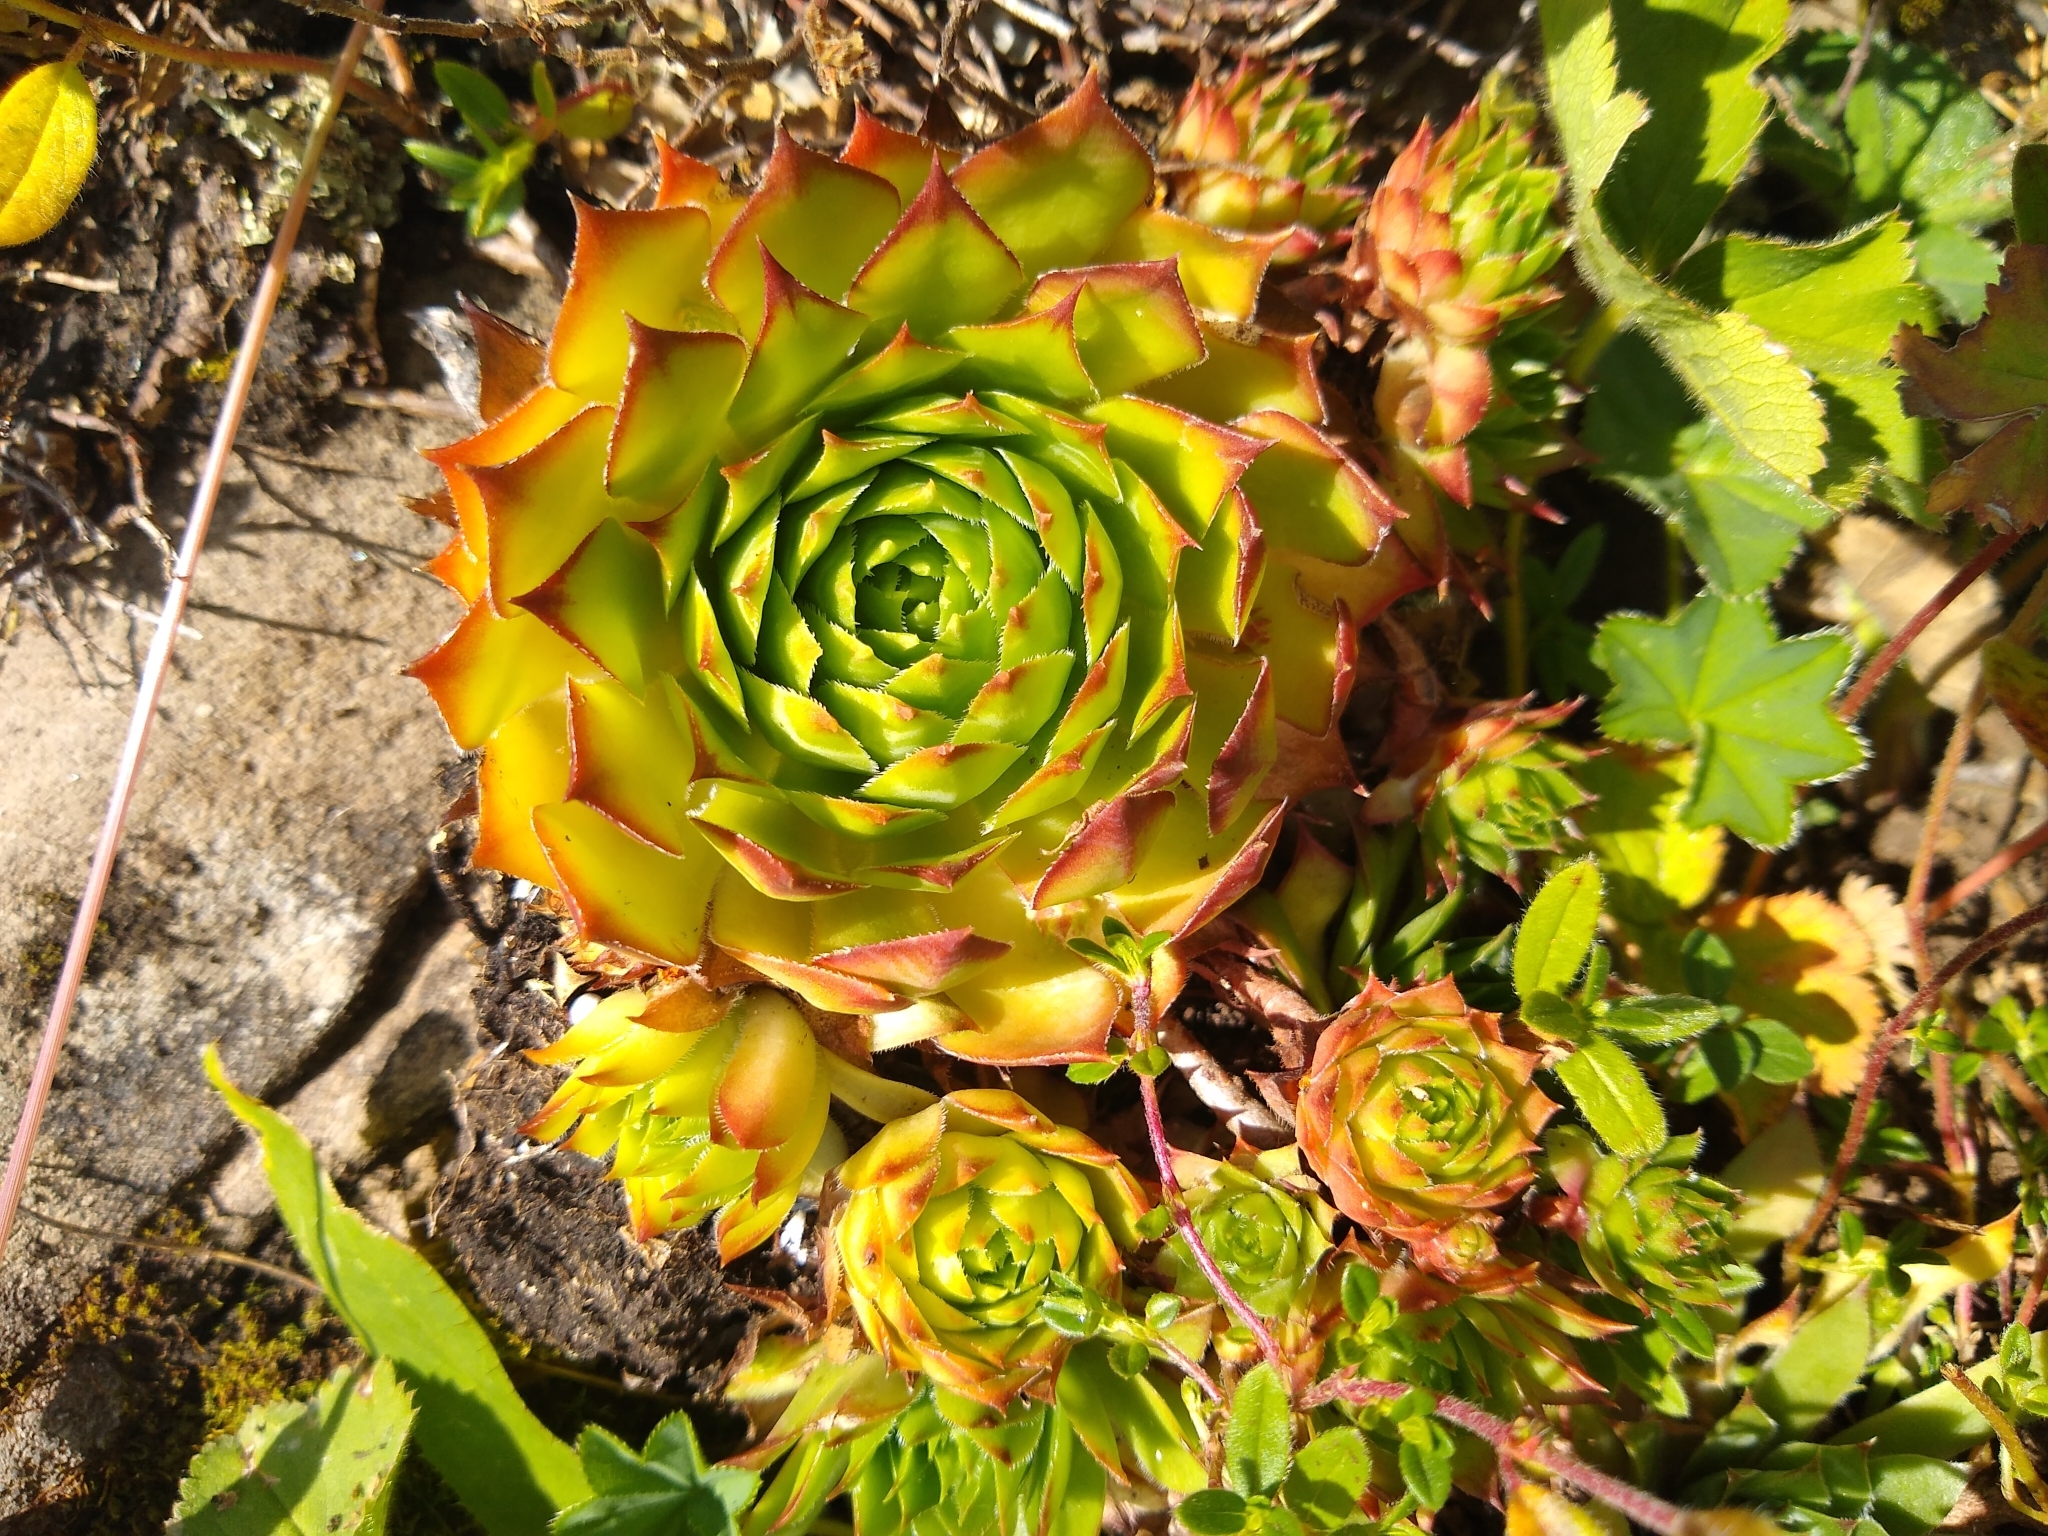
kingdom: Plantae
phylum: Tracheophyta
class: Magnoliopsida
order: Saxifragales
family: Crassulaceae
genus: Sempervivum
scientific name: Sempervivum tectorum
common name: House-leek
